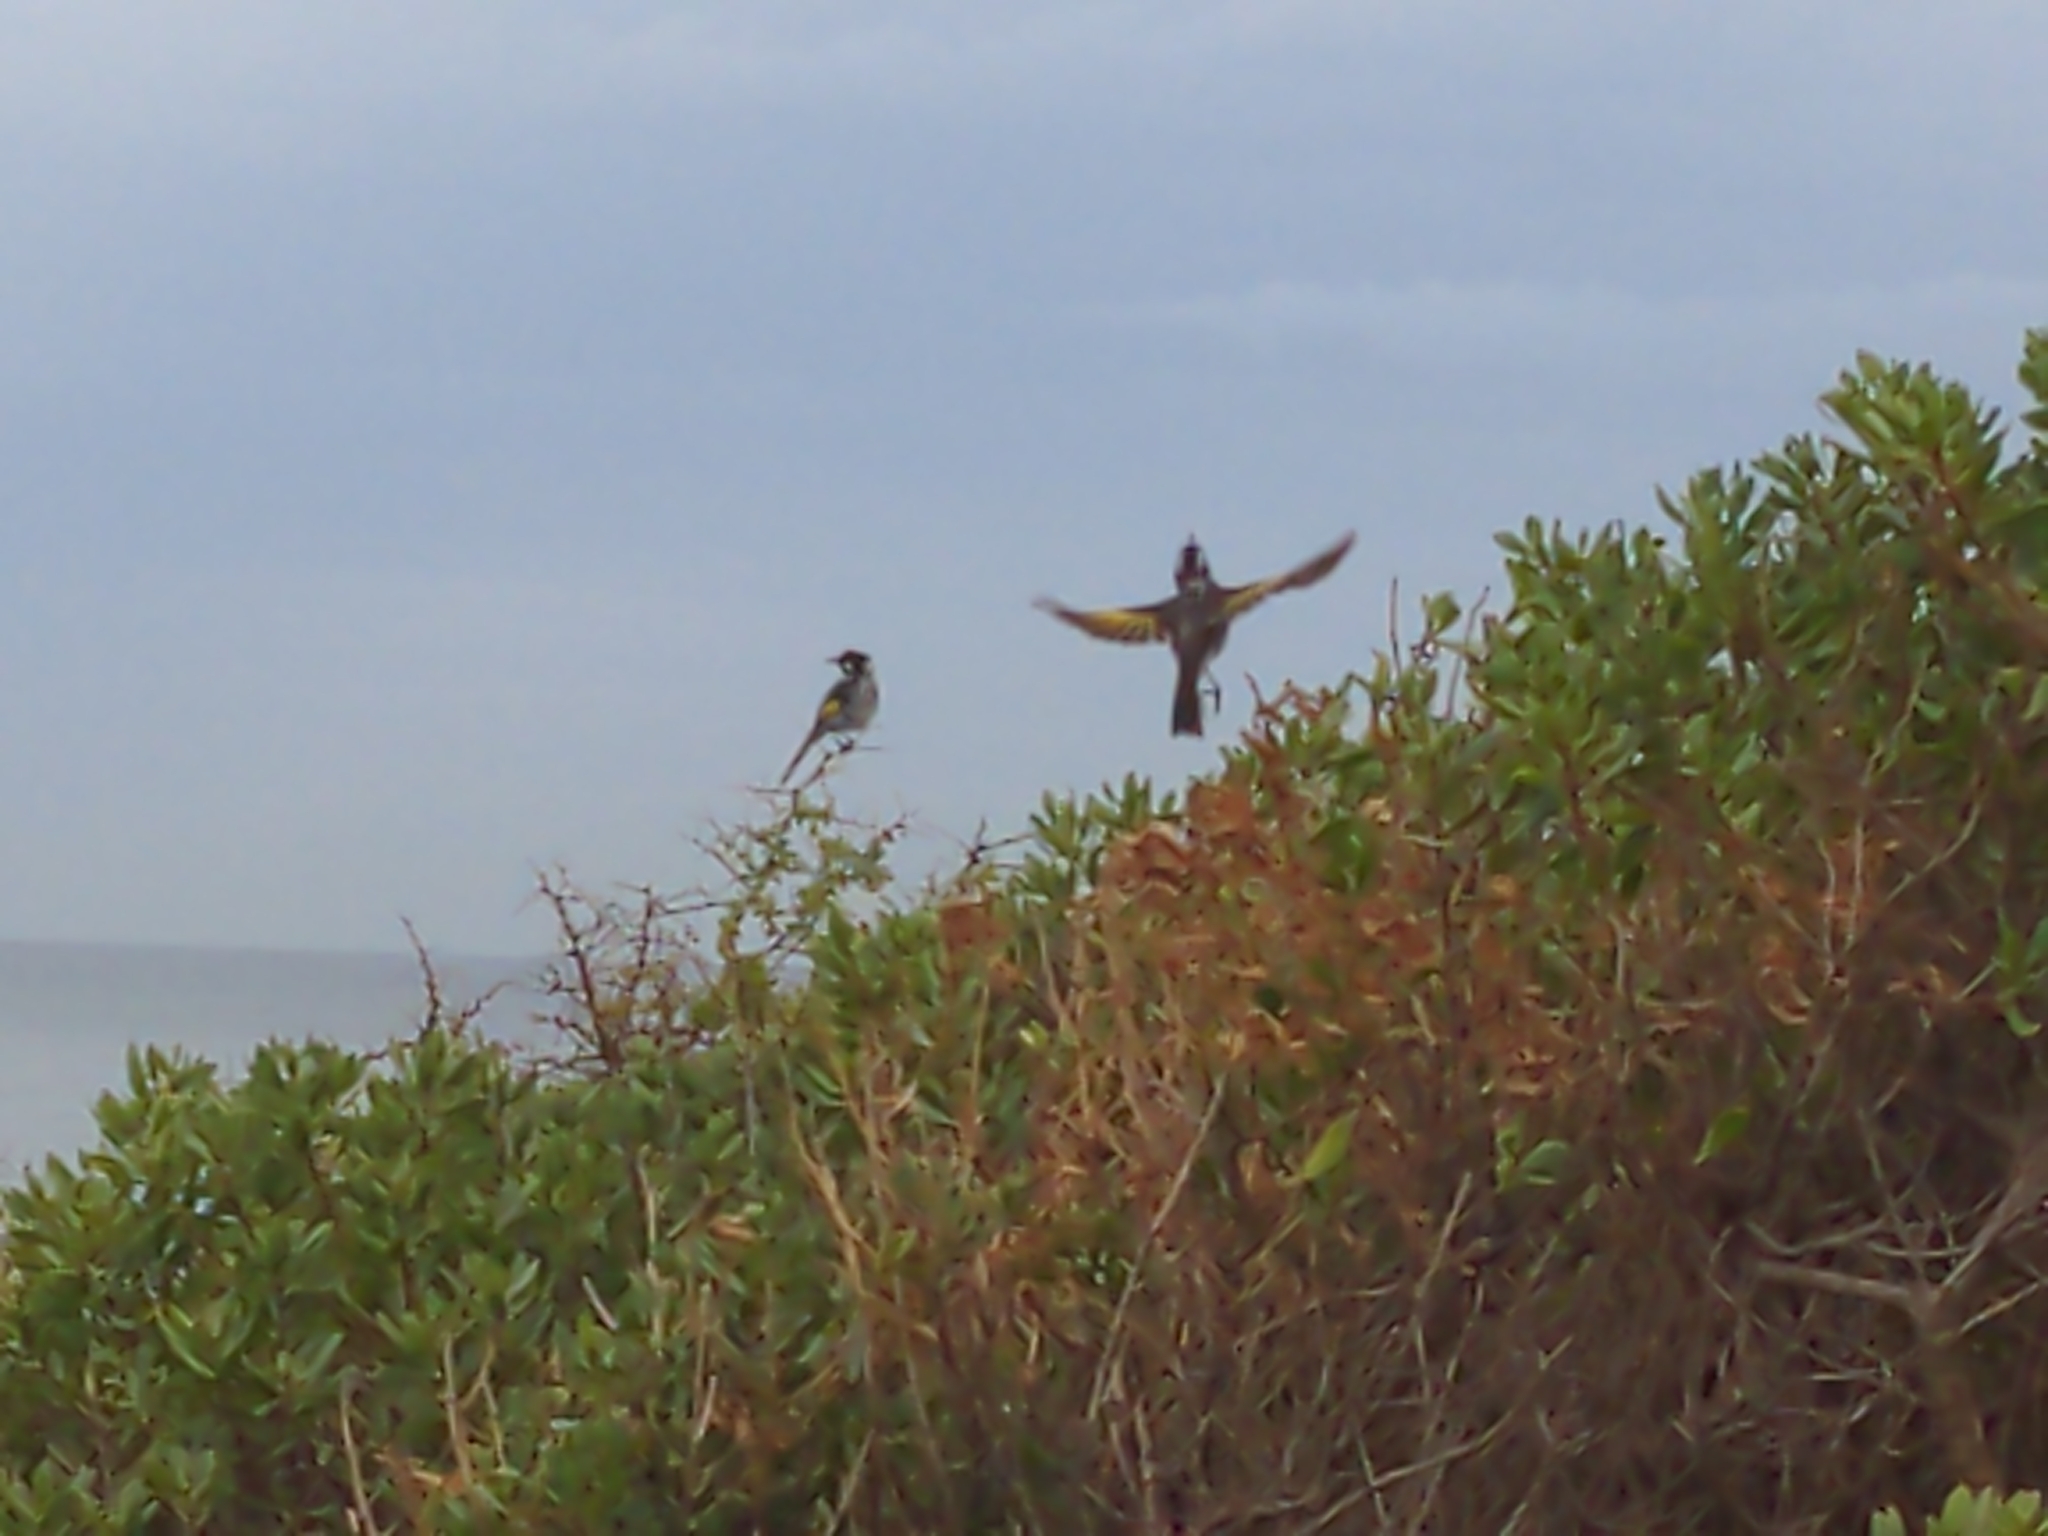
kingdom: Animalia
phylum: Chordata
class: Aves
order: Passeriformes
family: Meliphagidae
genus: Phylidonyris
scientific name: Phylidonyris novaehollandiae
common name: New holland honeyeater
